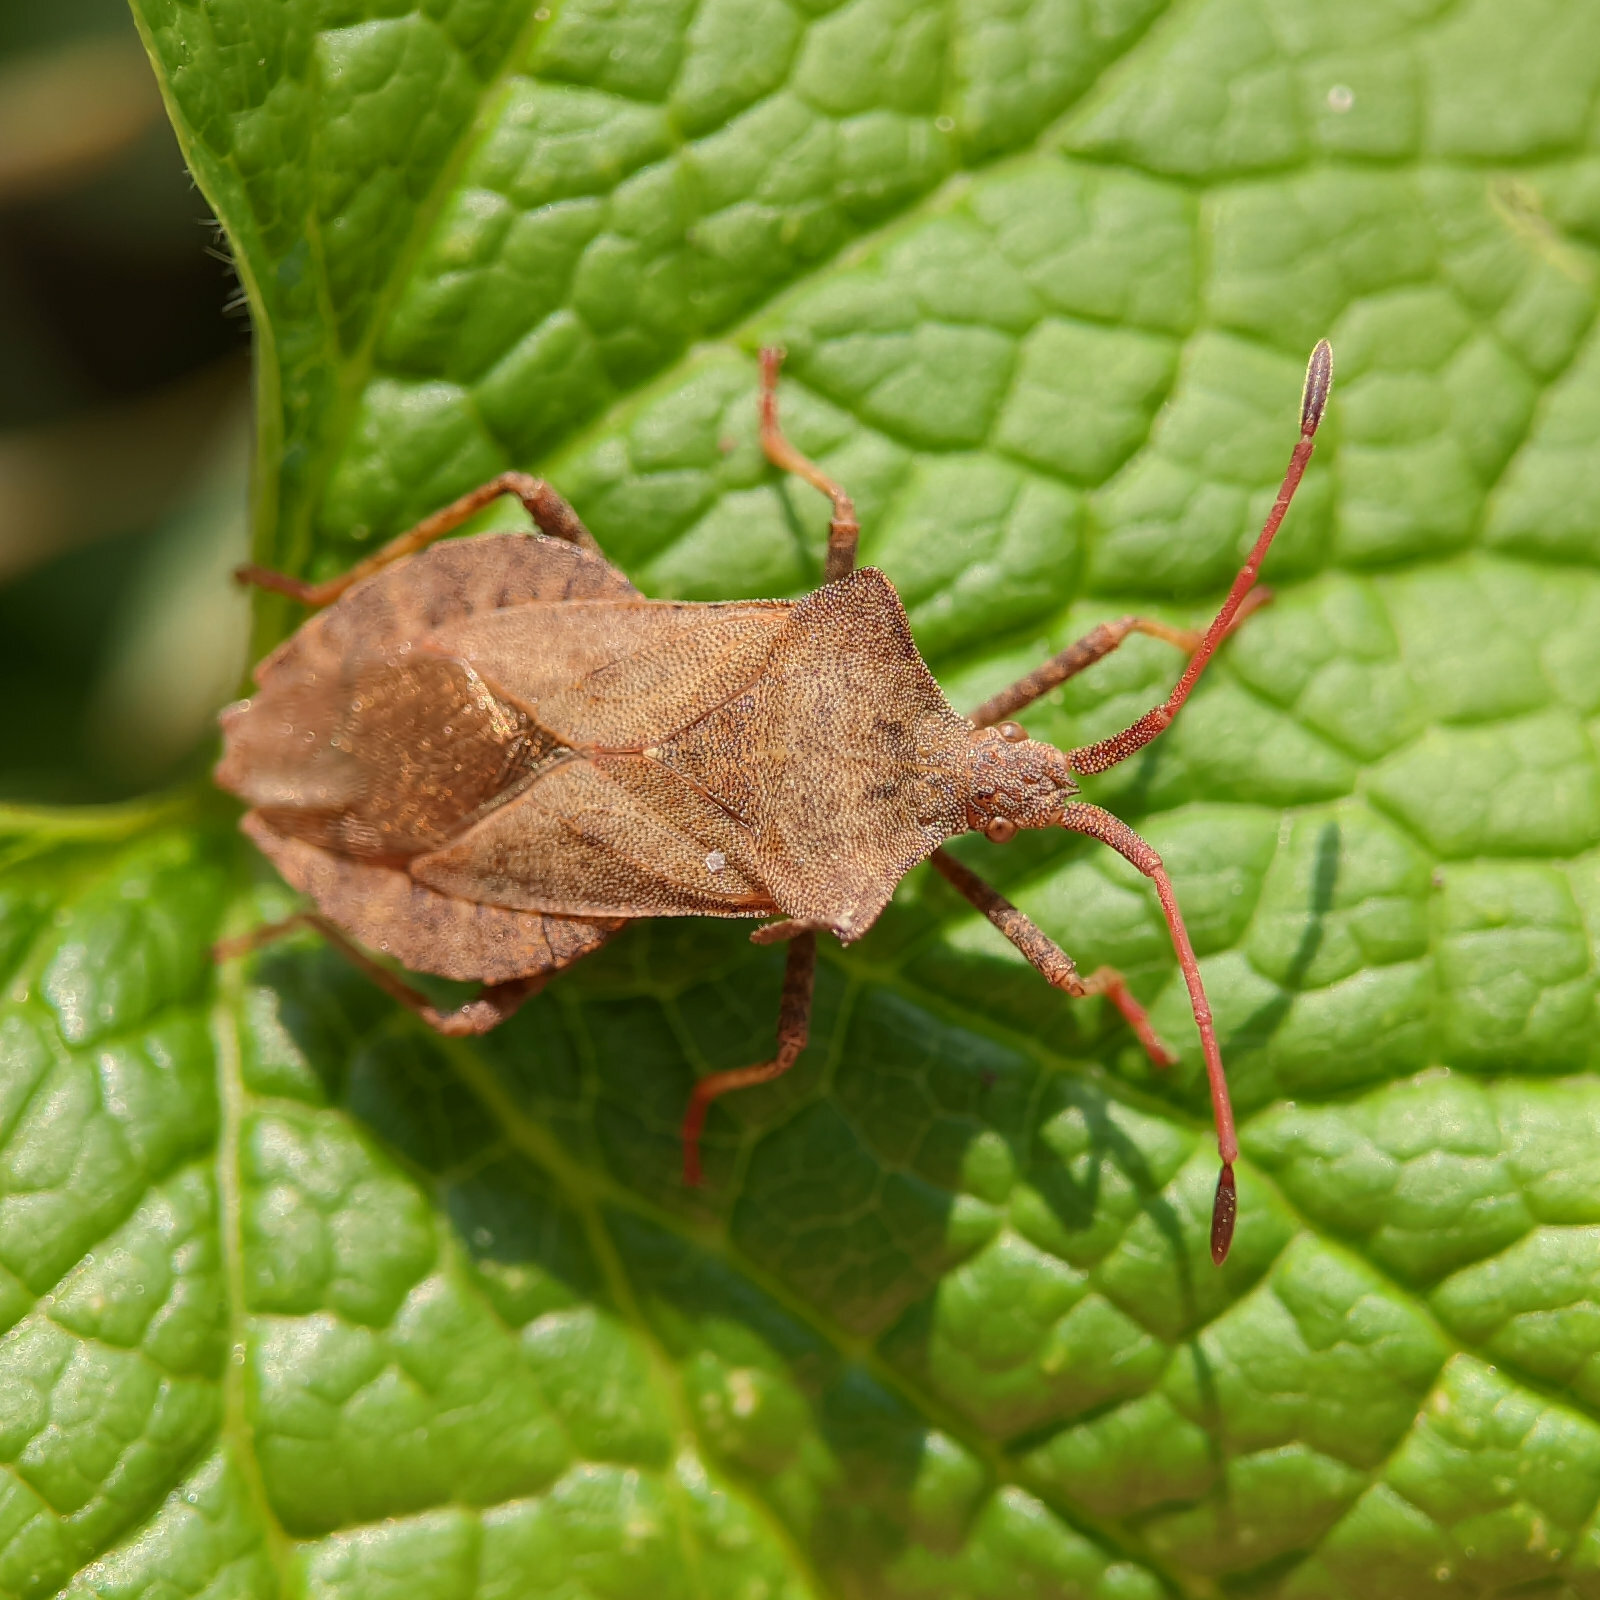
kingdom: Animalia
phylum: Arthropoda
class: Insecta
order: Hemiptera
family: Coreidae
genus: Coreus
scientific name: Coreus marginatus
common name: Dock bug
